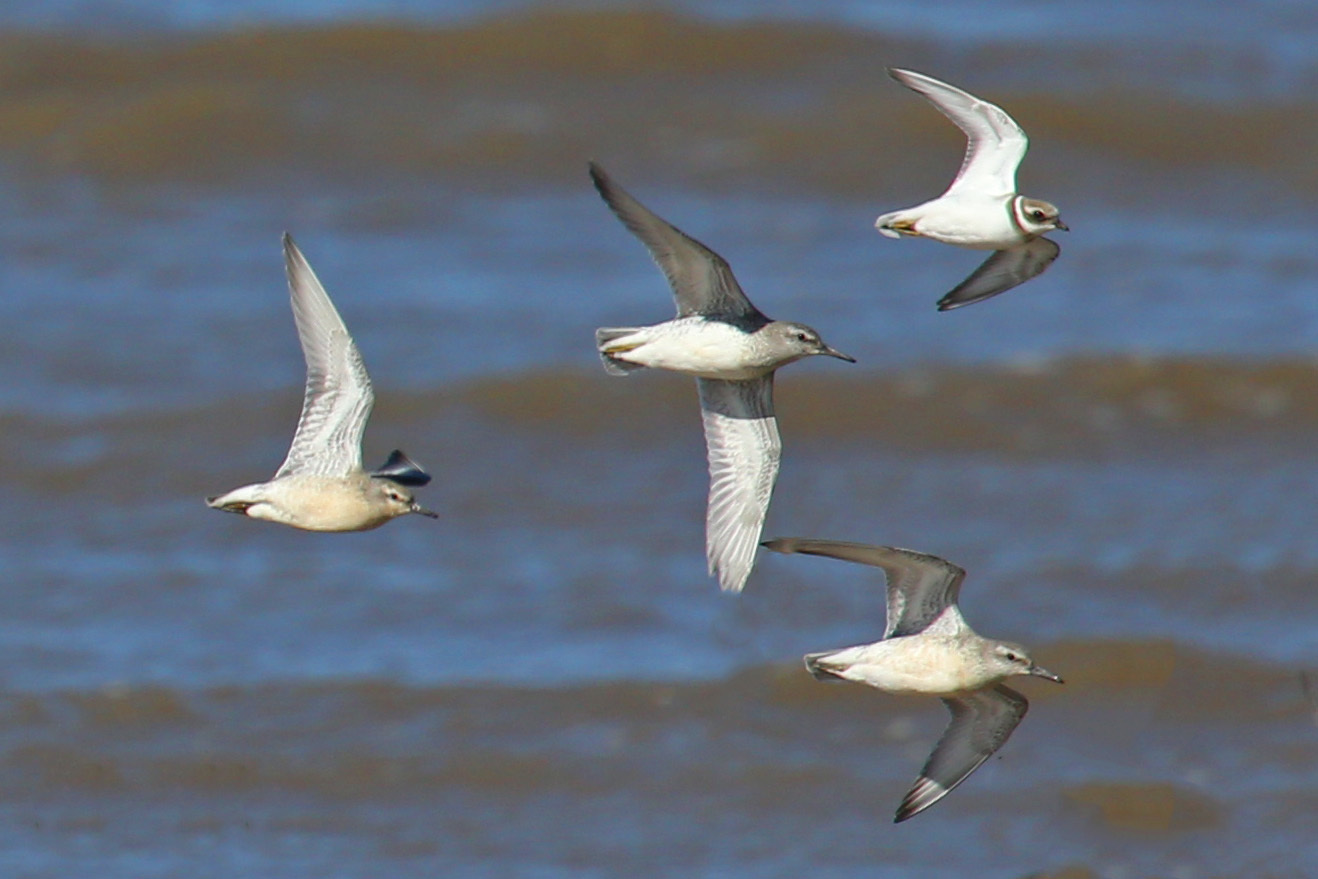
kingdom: Animalia
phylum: Chordata
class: Aves
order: Charadriiformes
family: Charadriidae
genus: Charadrius
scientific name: Charadrius hiaticula
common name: Common ringed plover
